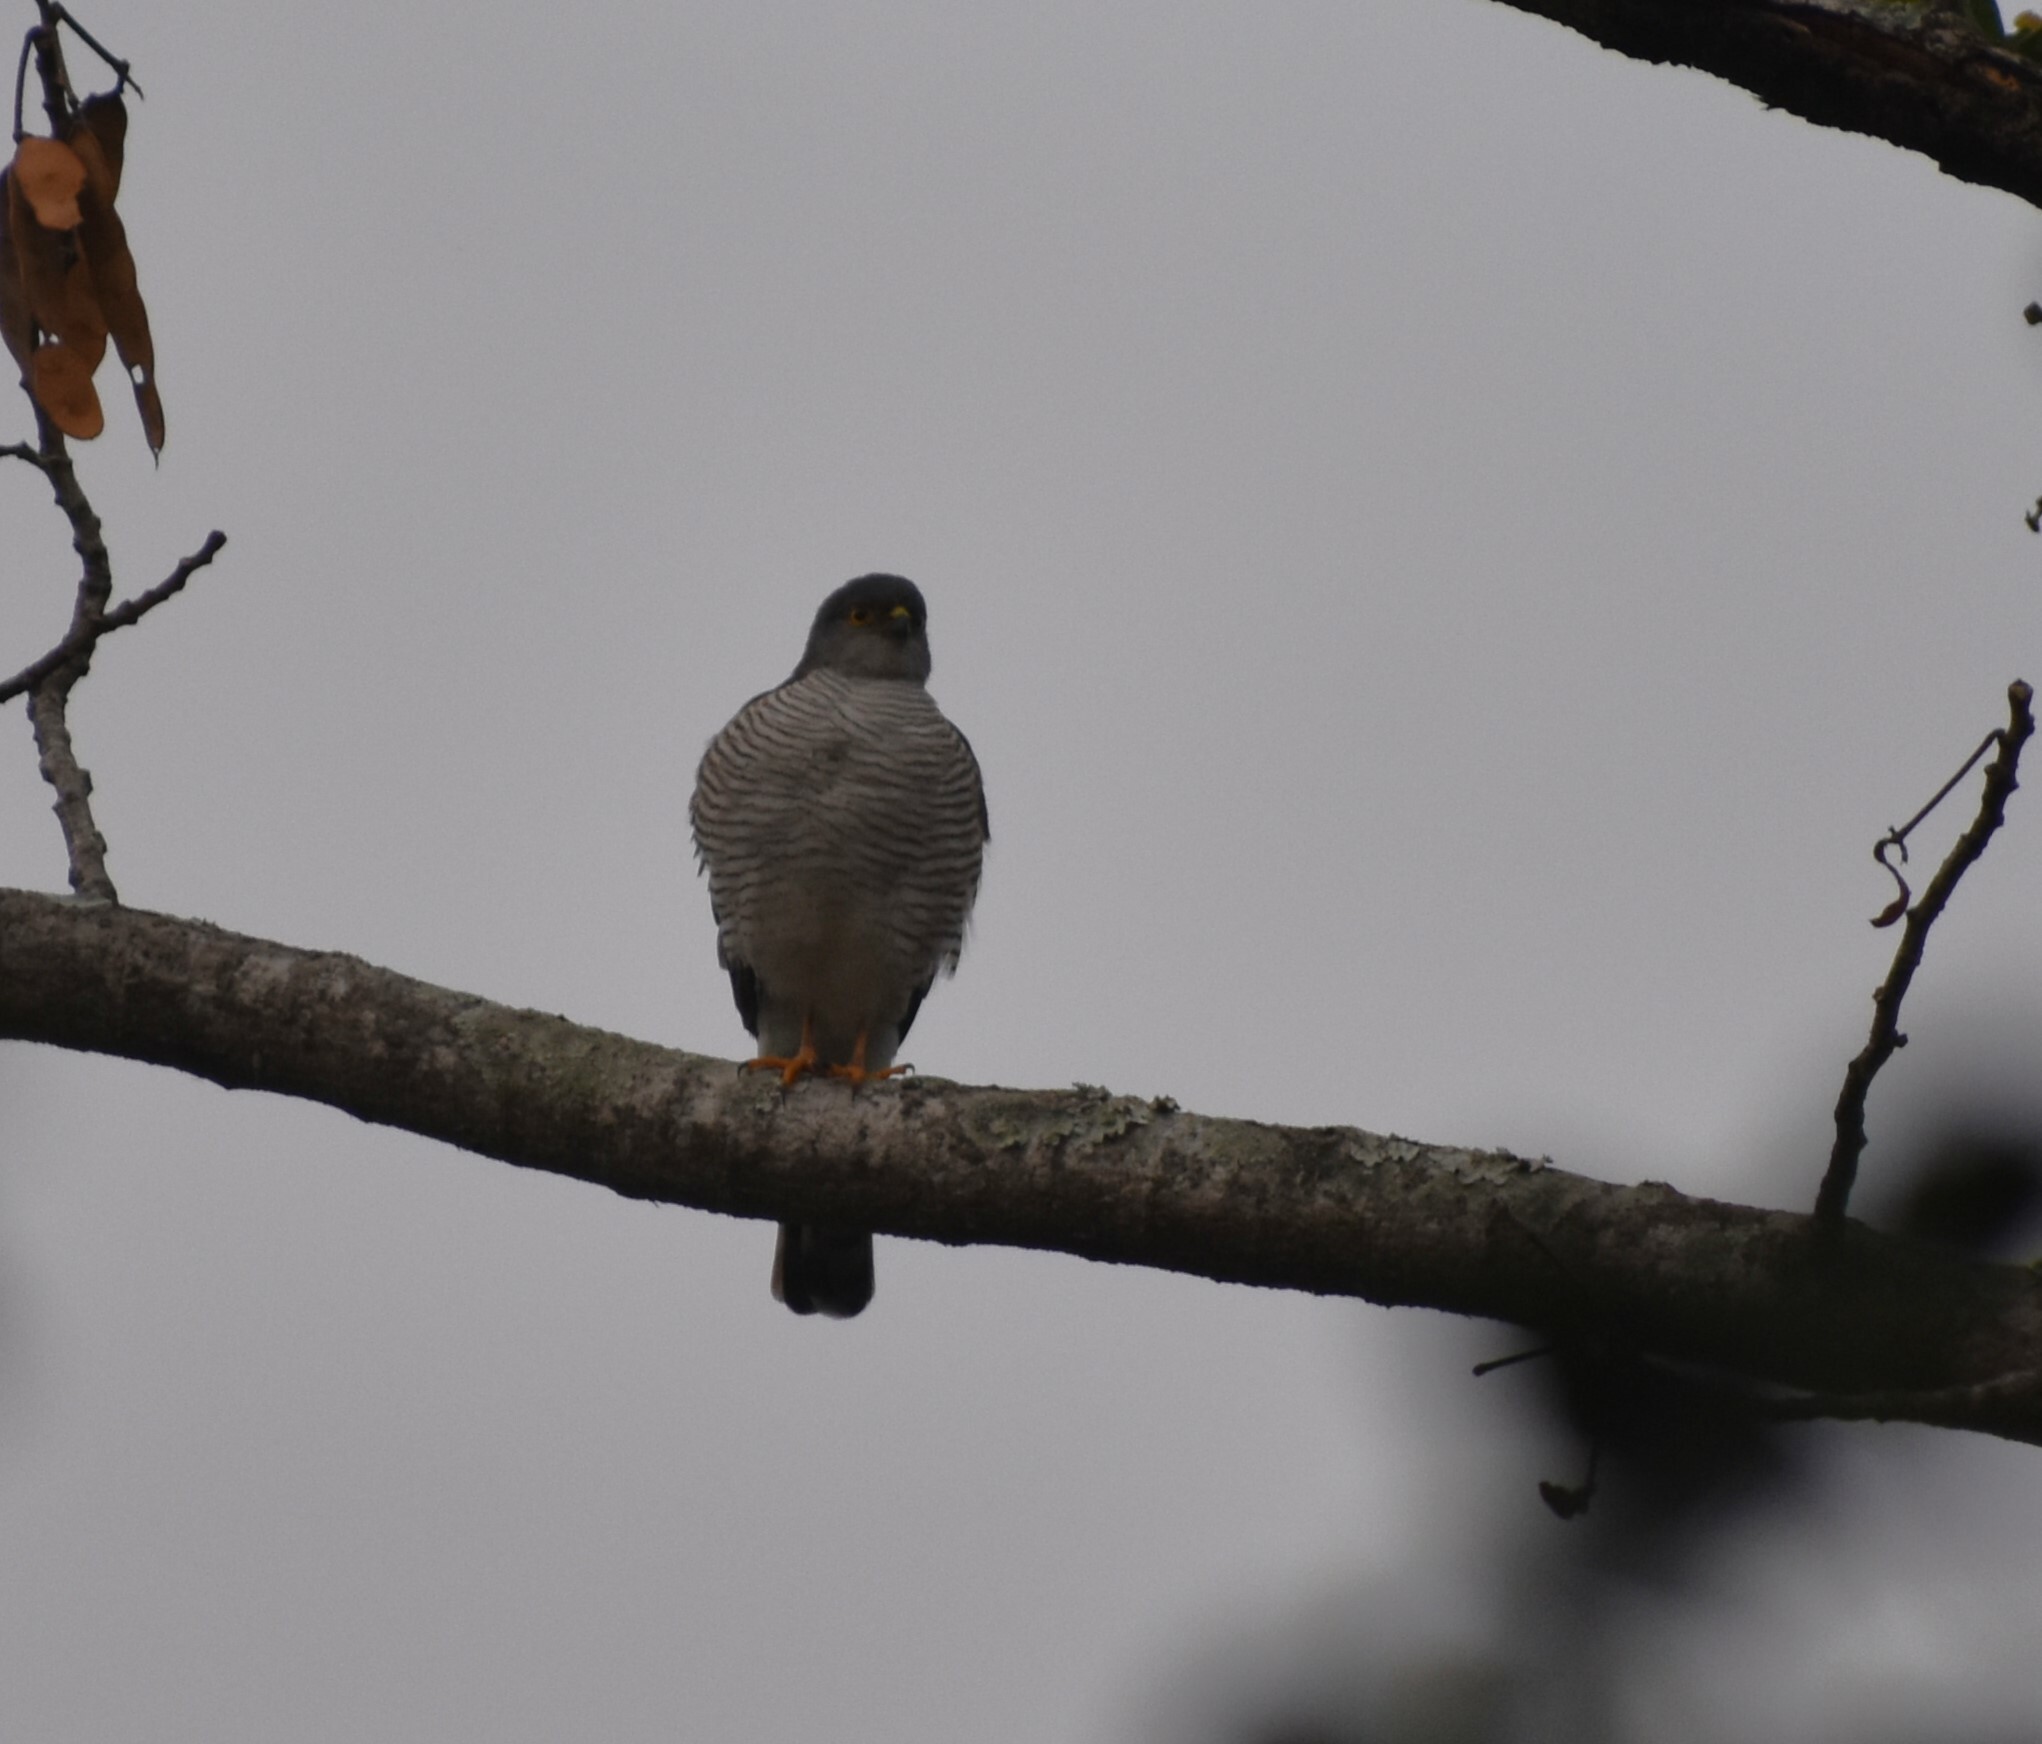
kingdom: Animalia
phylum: Chordata
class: Aves
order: Accipitriformes
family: Accipitridae
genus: Accipiter
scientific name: Accipiter minullus
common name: Little sparrowhawk
